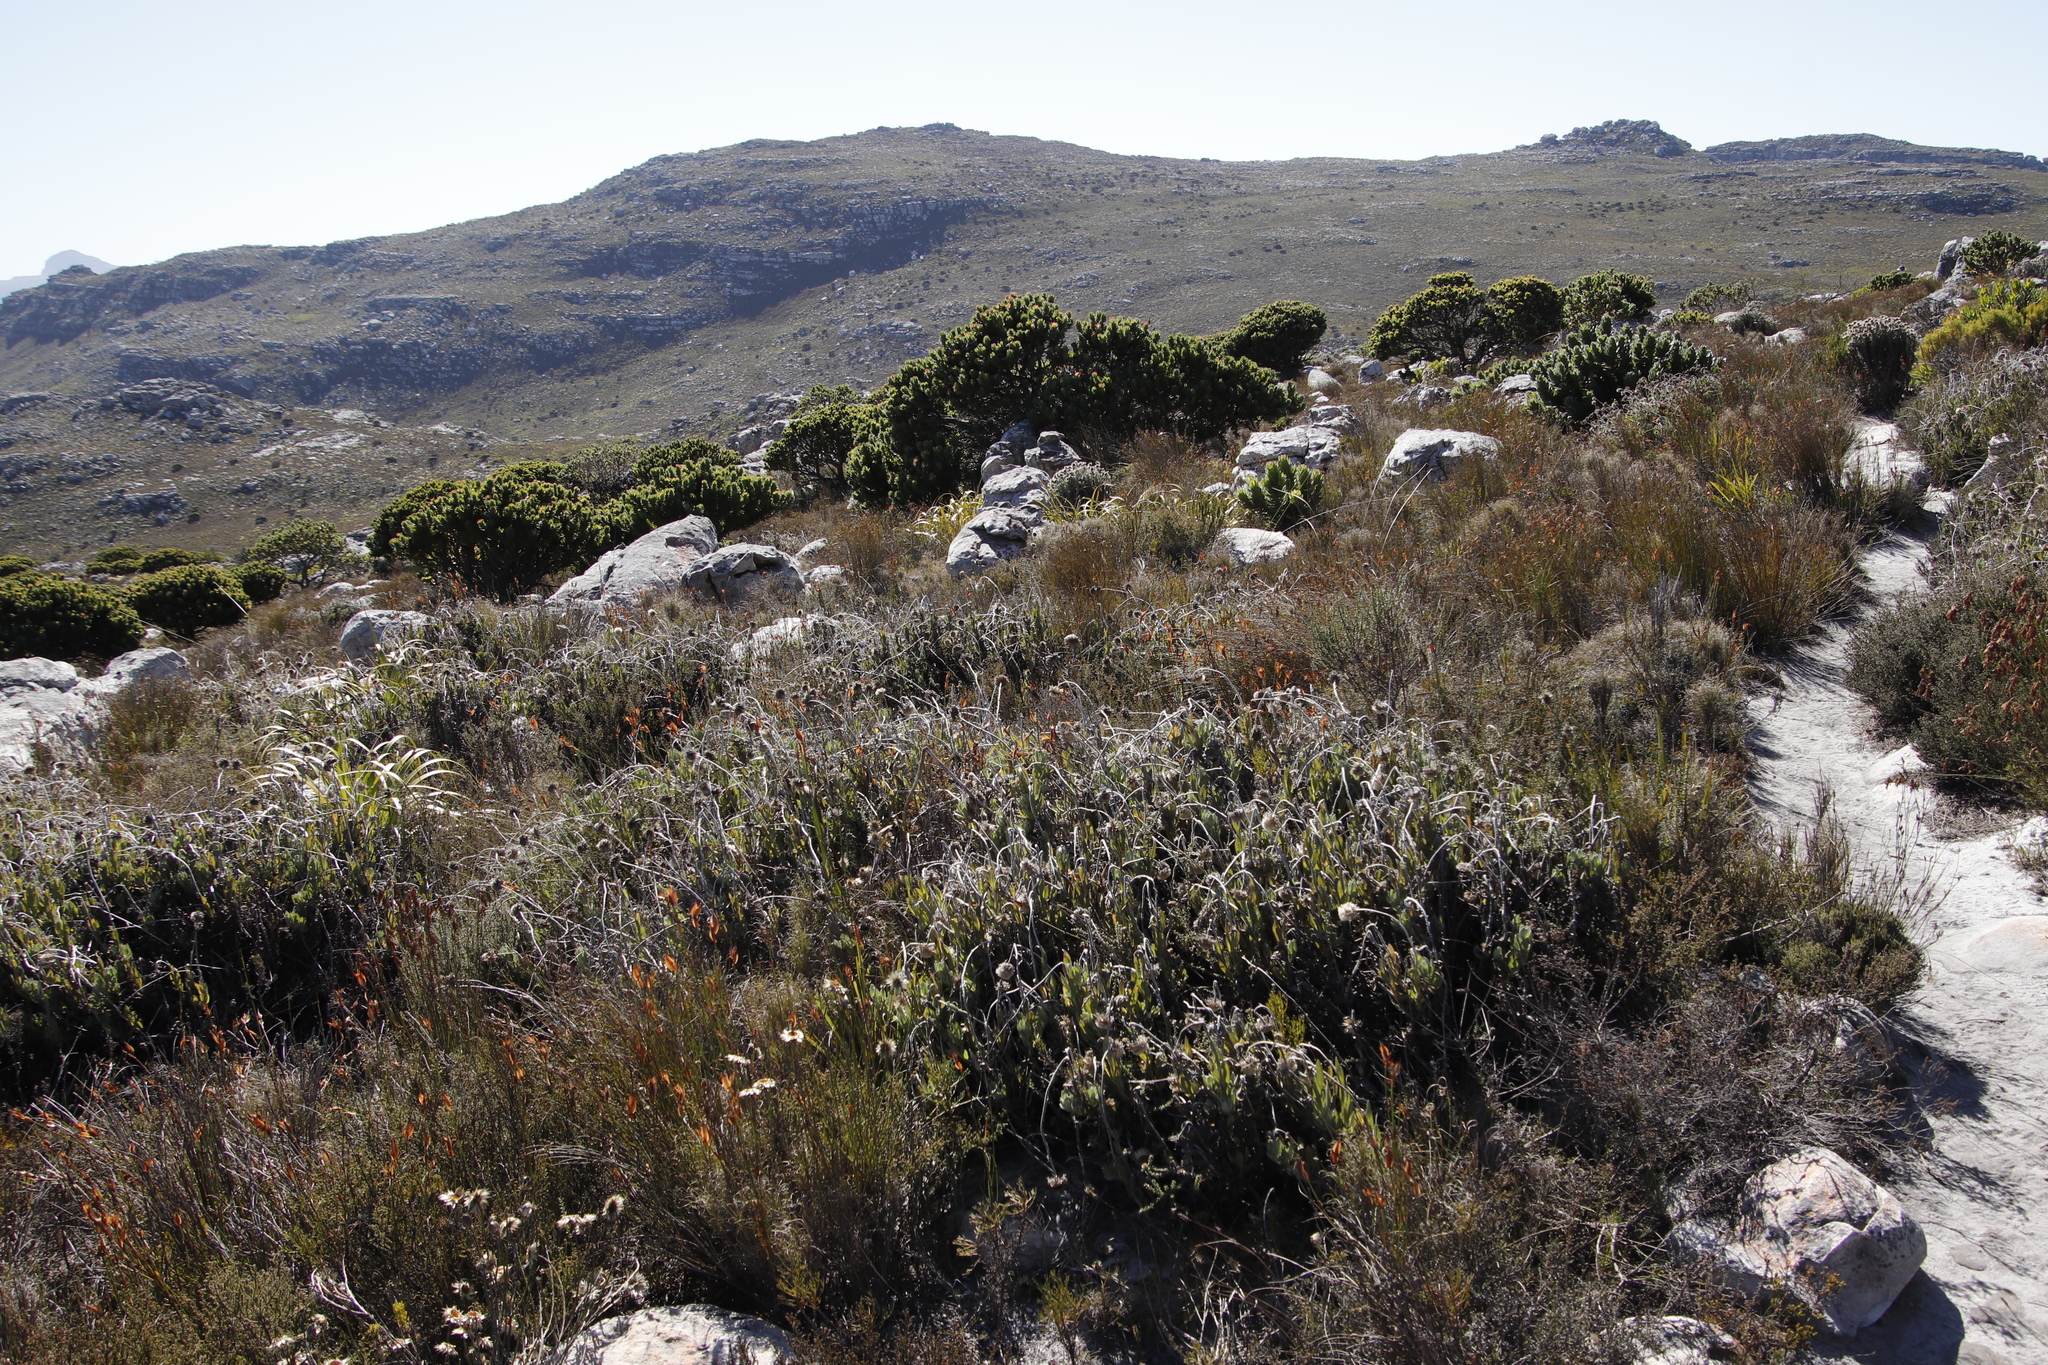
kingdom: Plantae
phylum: Tracheophyta
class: Magnoliopsida
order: Asterales
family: Asteraceae
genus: Syncarpha
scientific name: Syncarpha vestita
